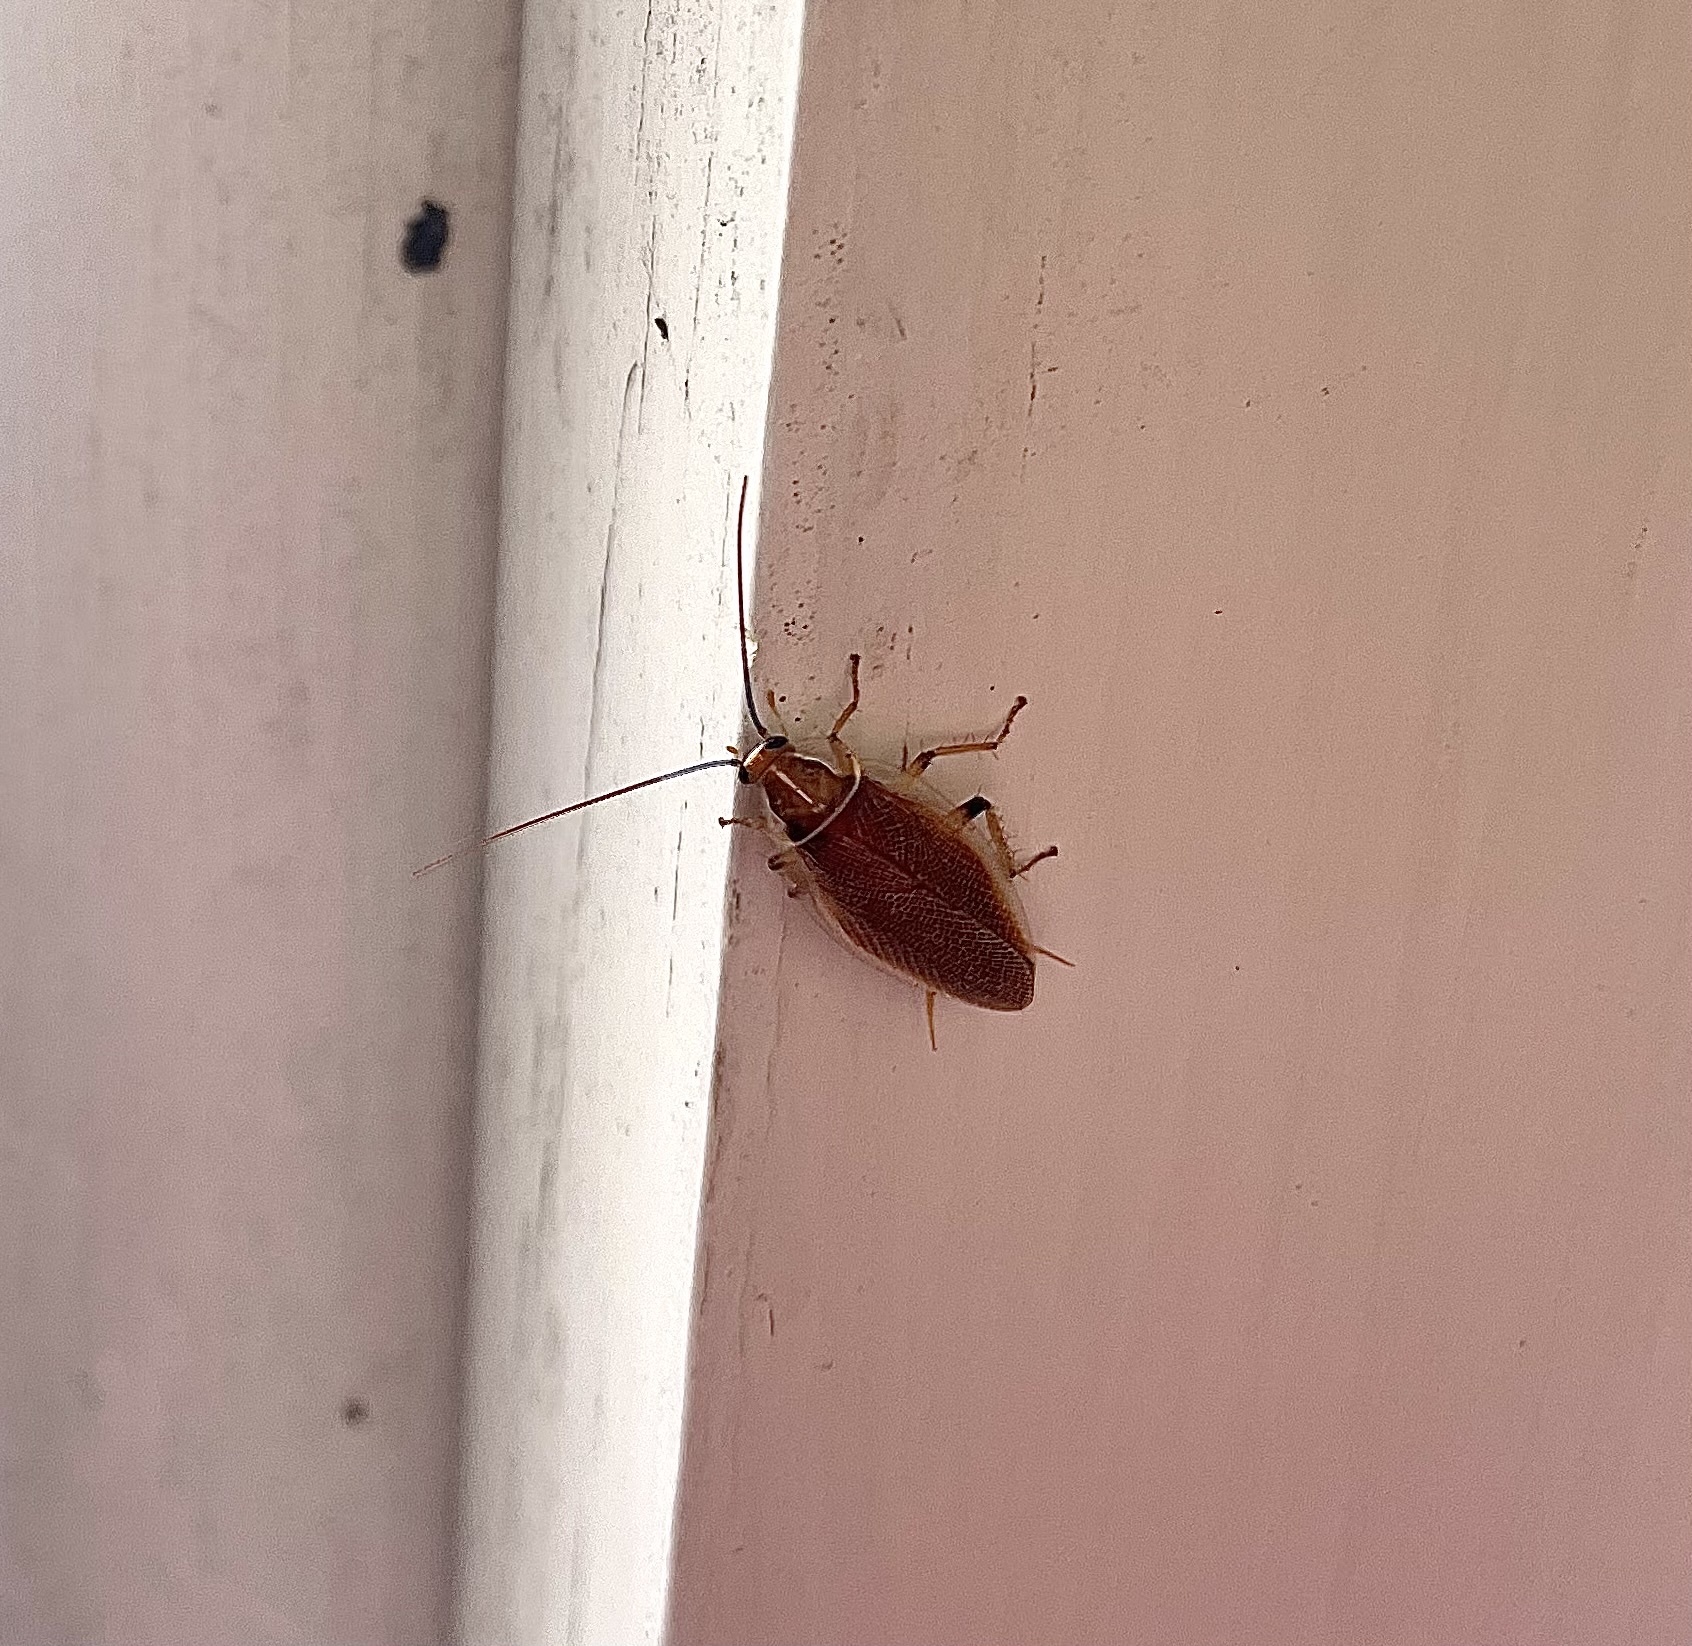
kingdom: Animalia
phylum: Arthropoda
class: Insecta
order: Blattodea
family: Ectobiidae
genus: Balta
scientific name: Balta bicolor
